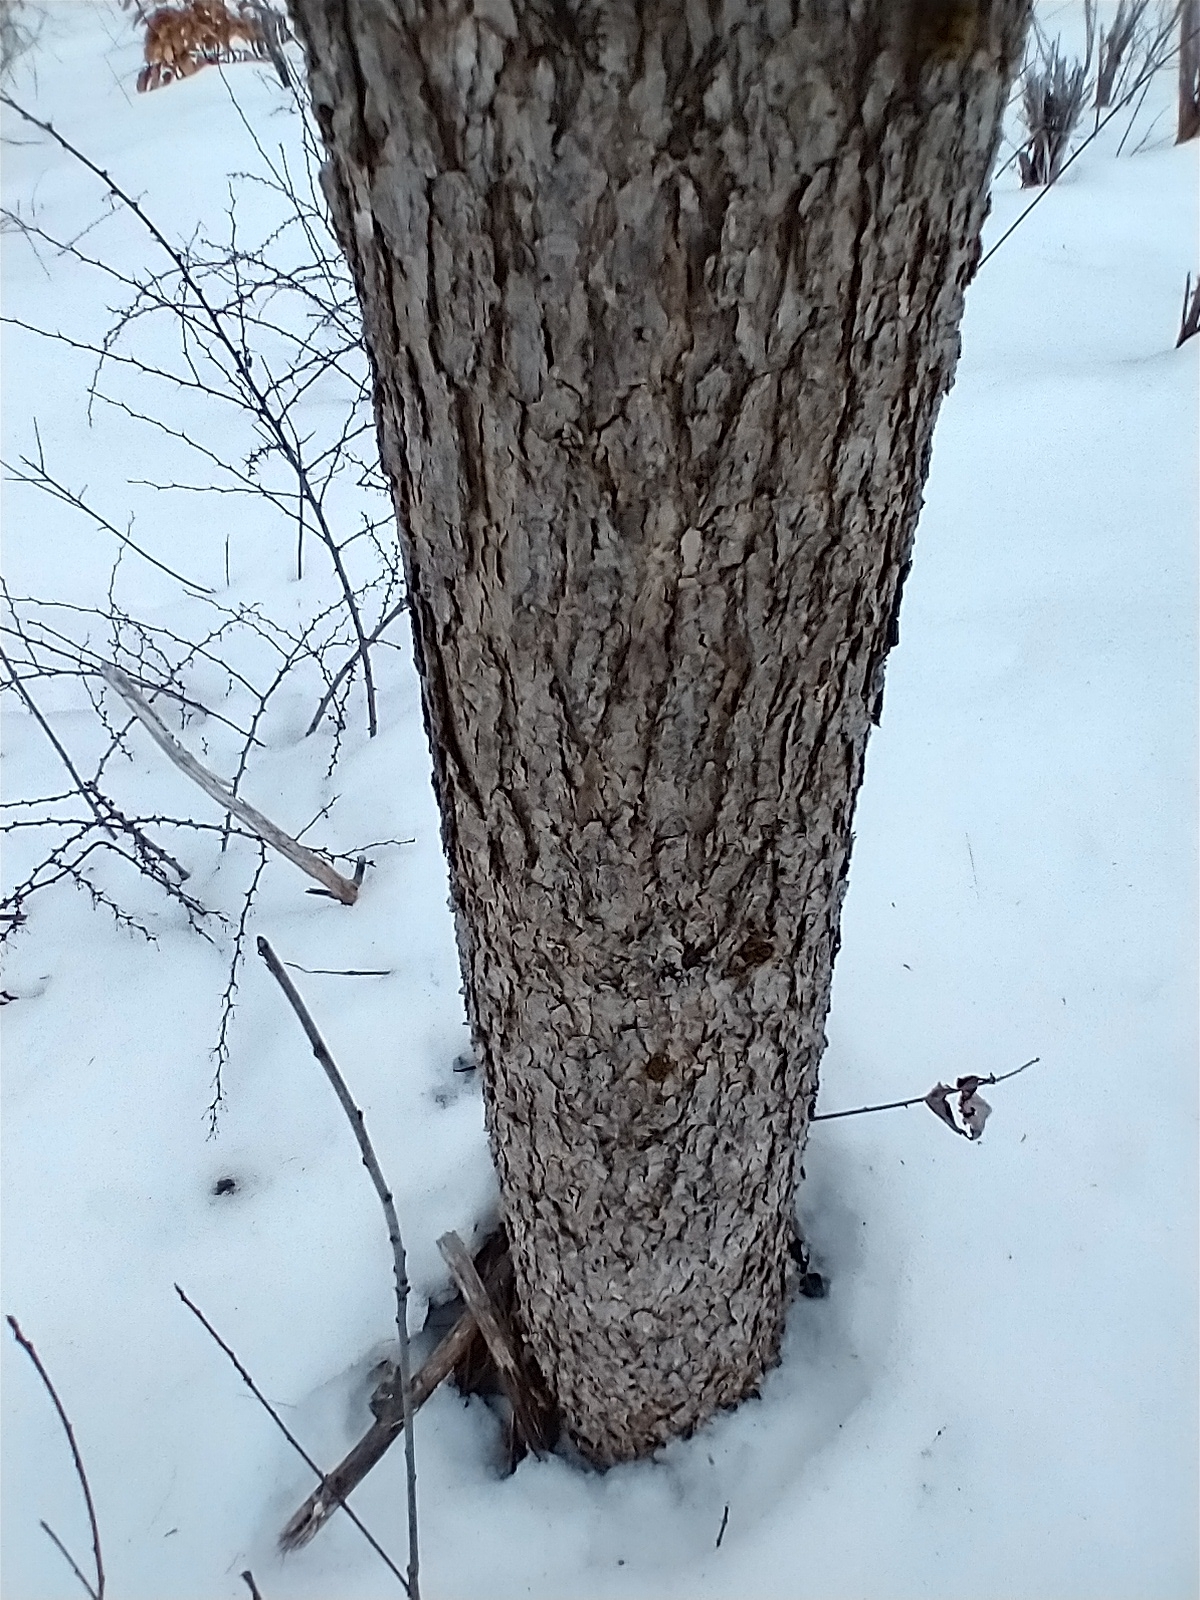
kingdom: Plantae
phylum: Tracheophyta
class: Magnoliopsida
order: Fagales
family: Fagaceae
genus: Quercus
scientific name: Quercus alba
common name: White oak
